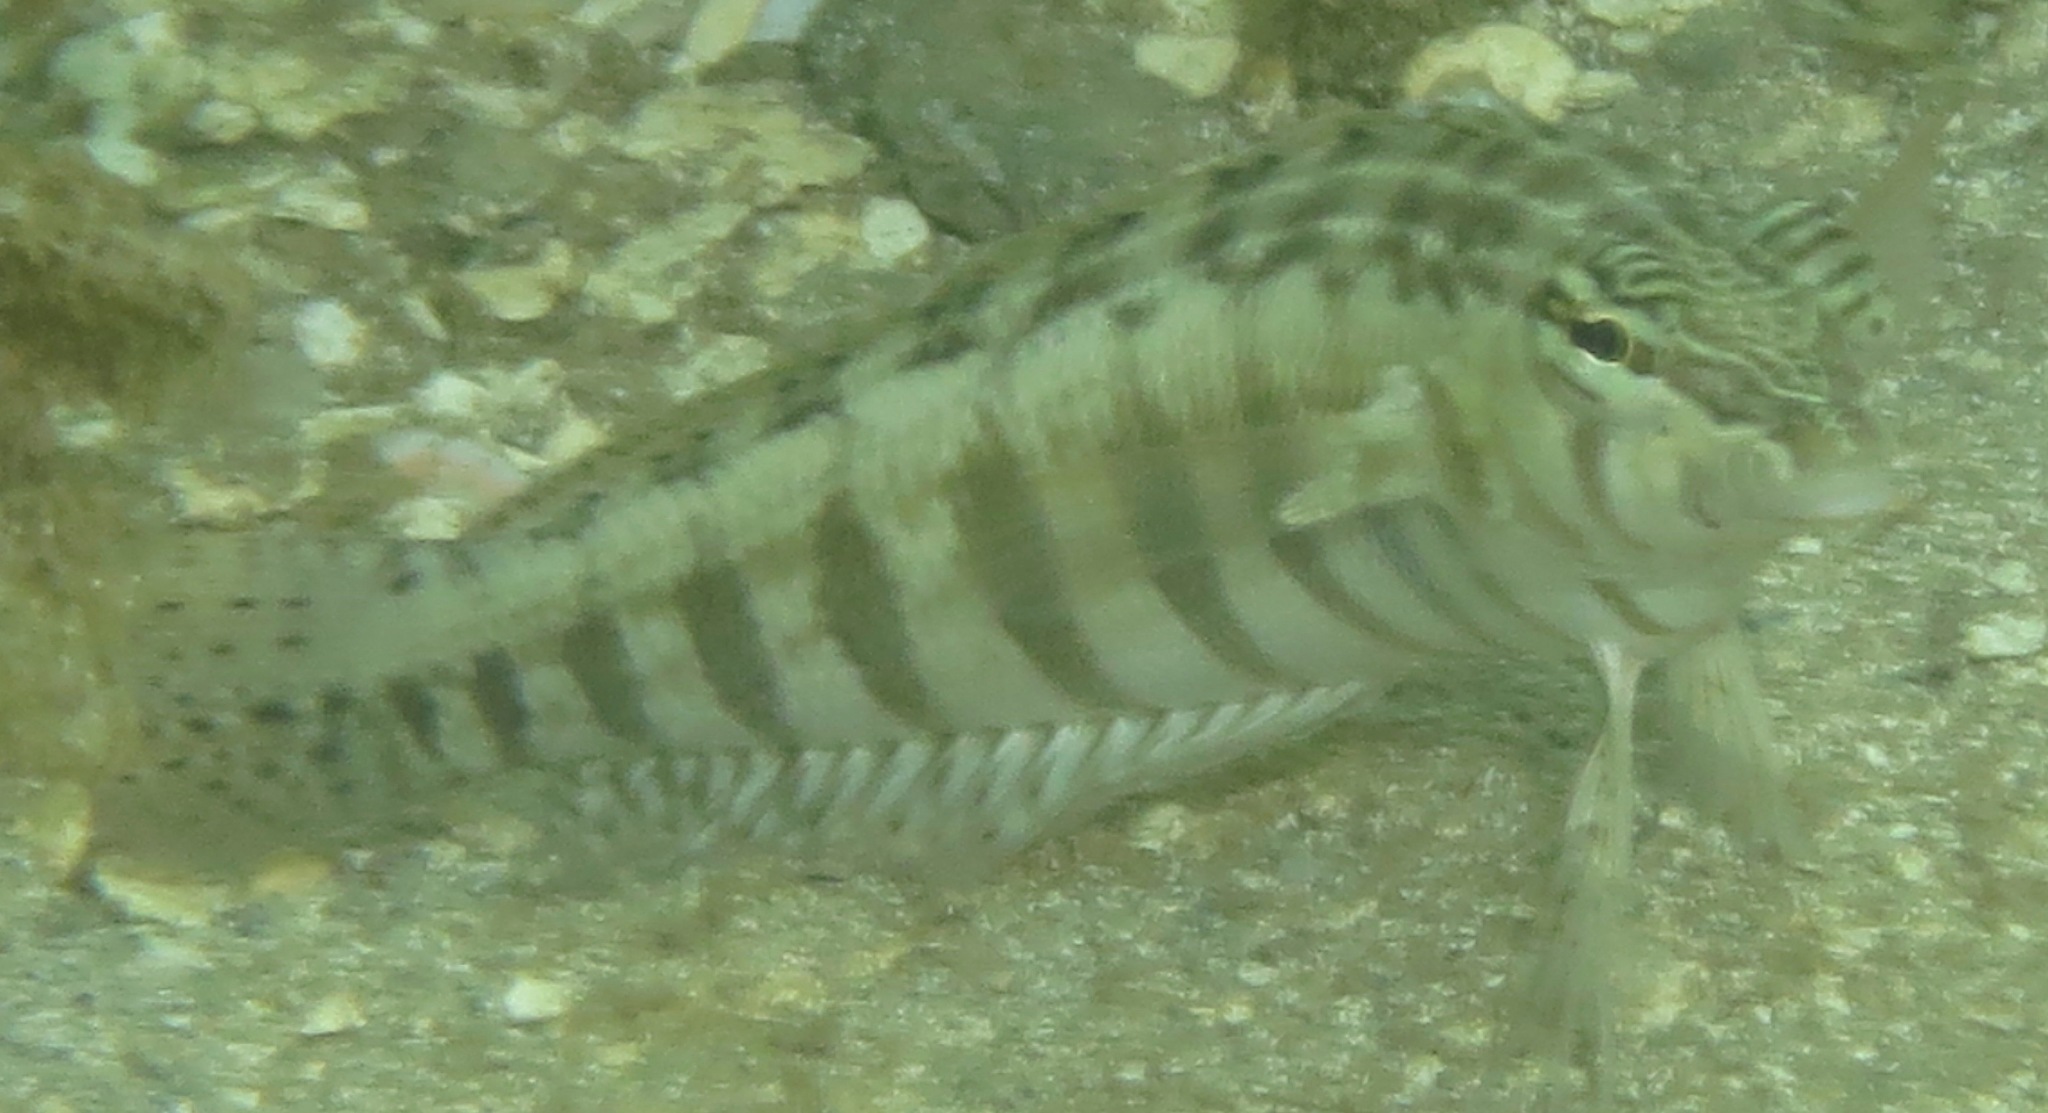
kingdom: Animalia
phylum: Chordata
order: Perciformes
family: Pinguipedidae
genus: Parapercis
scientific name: Parapercis australis
